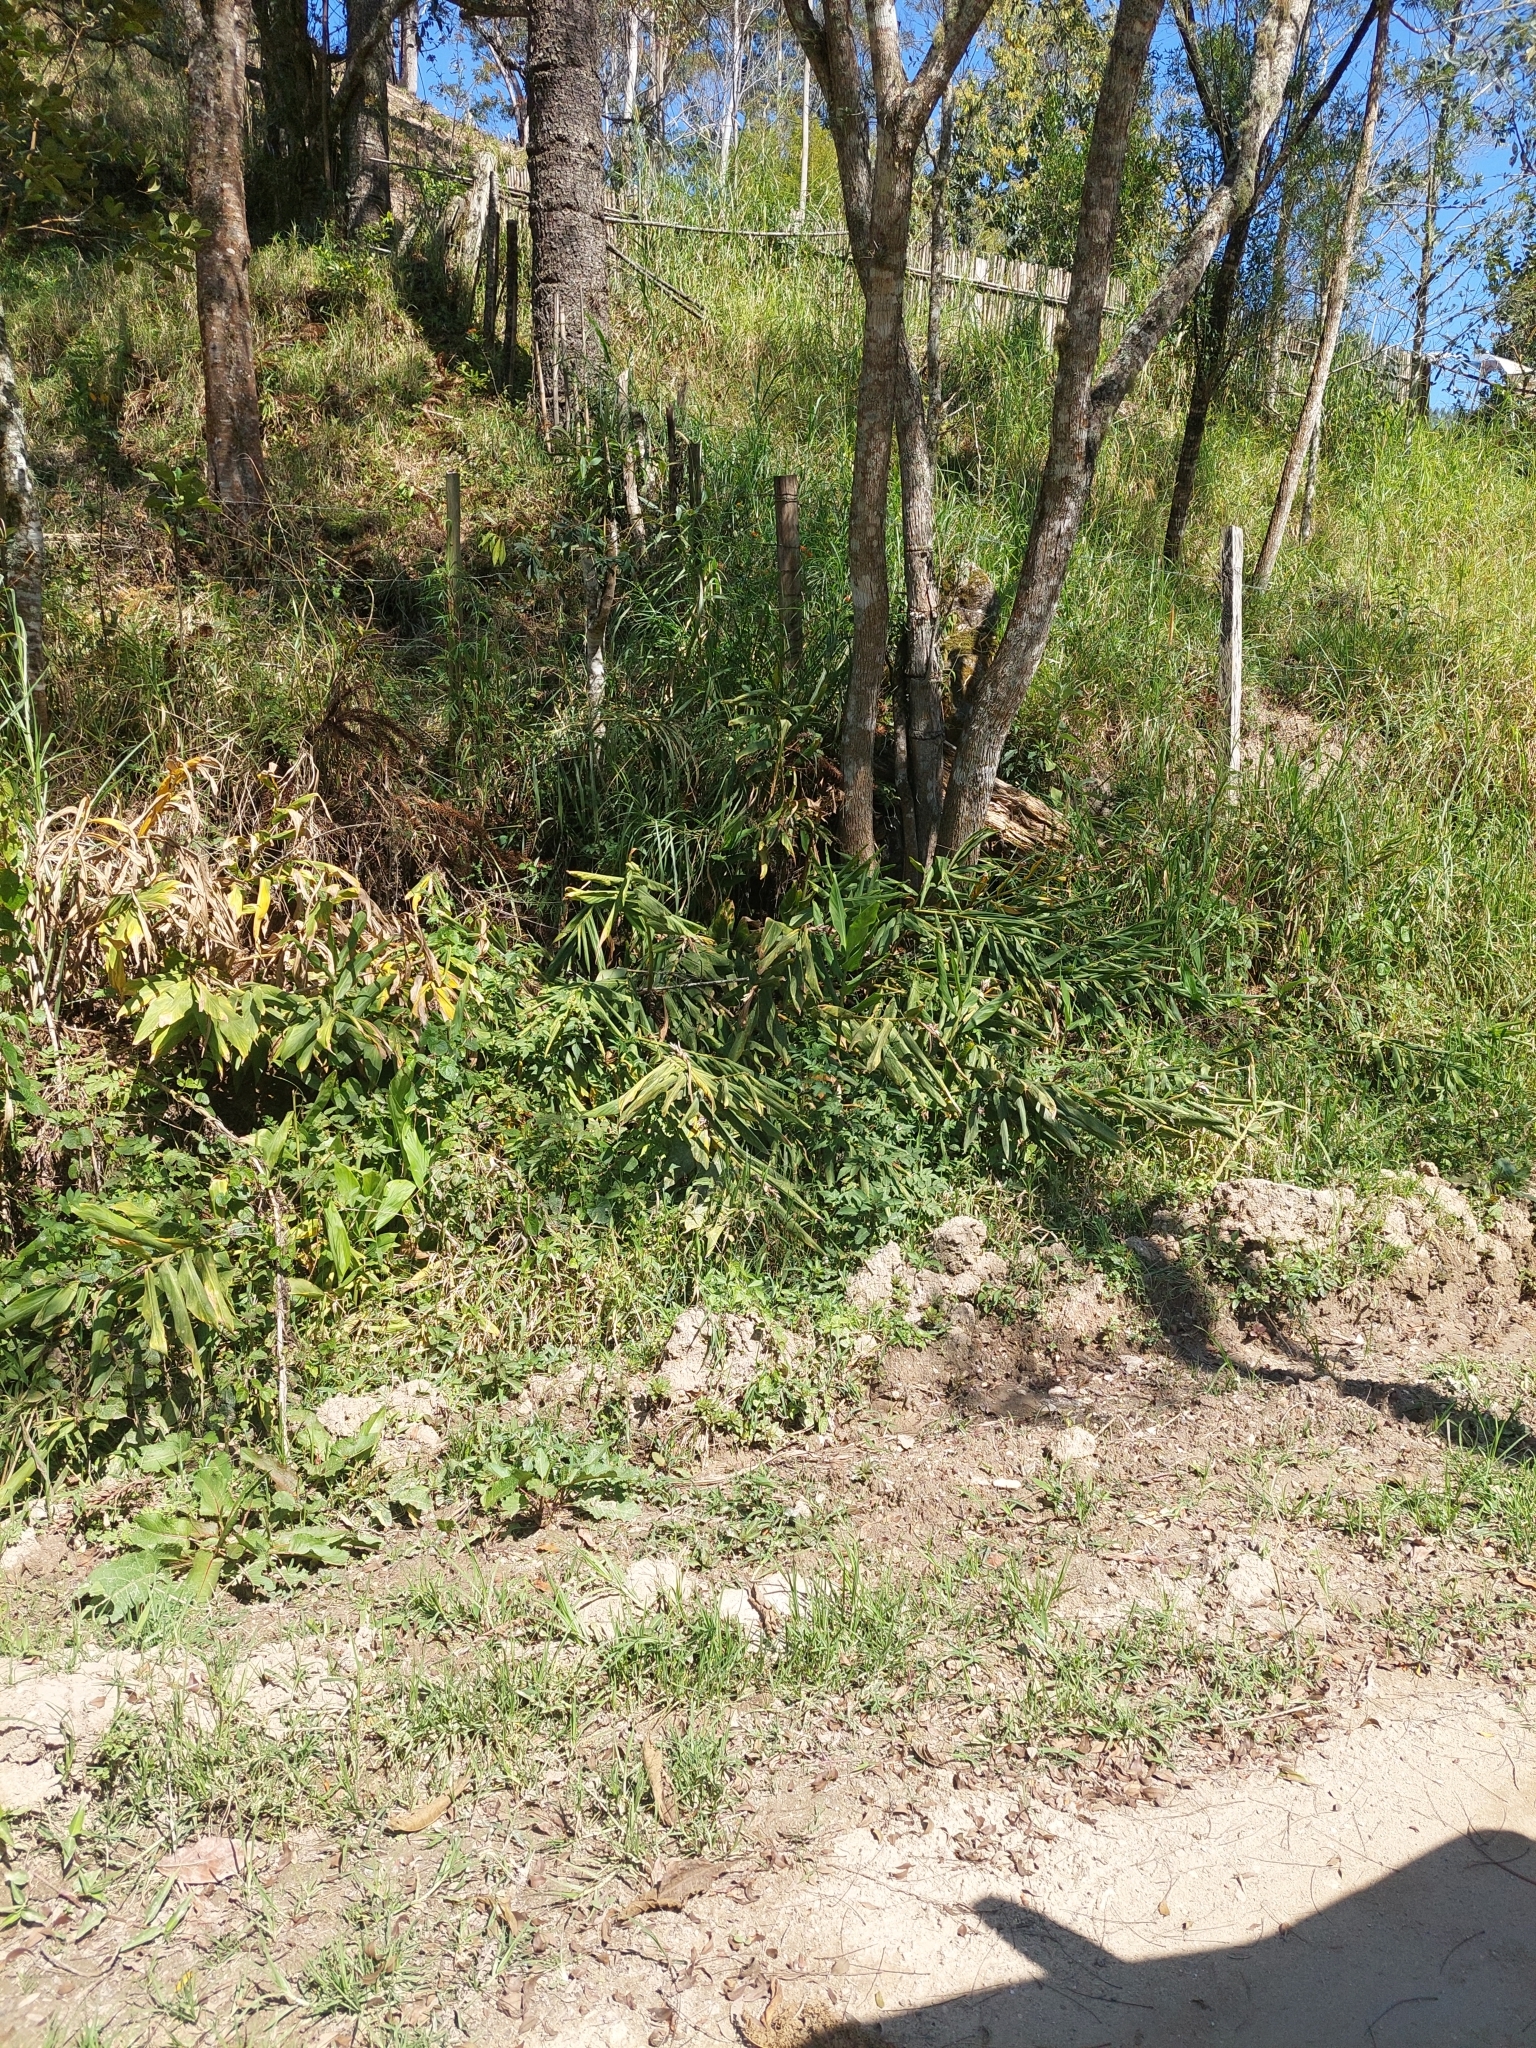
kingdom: Plantae
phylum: Tracheophyta
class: Liliopsida
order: Zingiberales
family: Zingiberaceae
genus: Hedychium
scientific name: Hedychium coronarium
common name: White garland-lily
